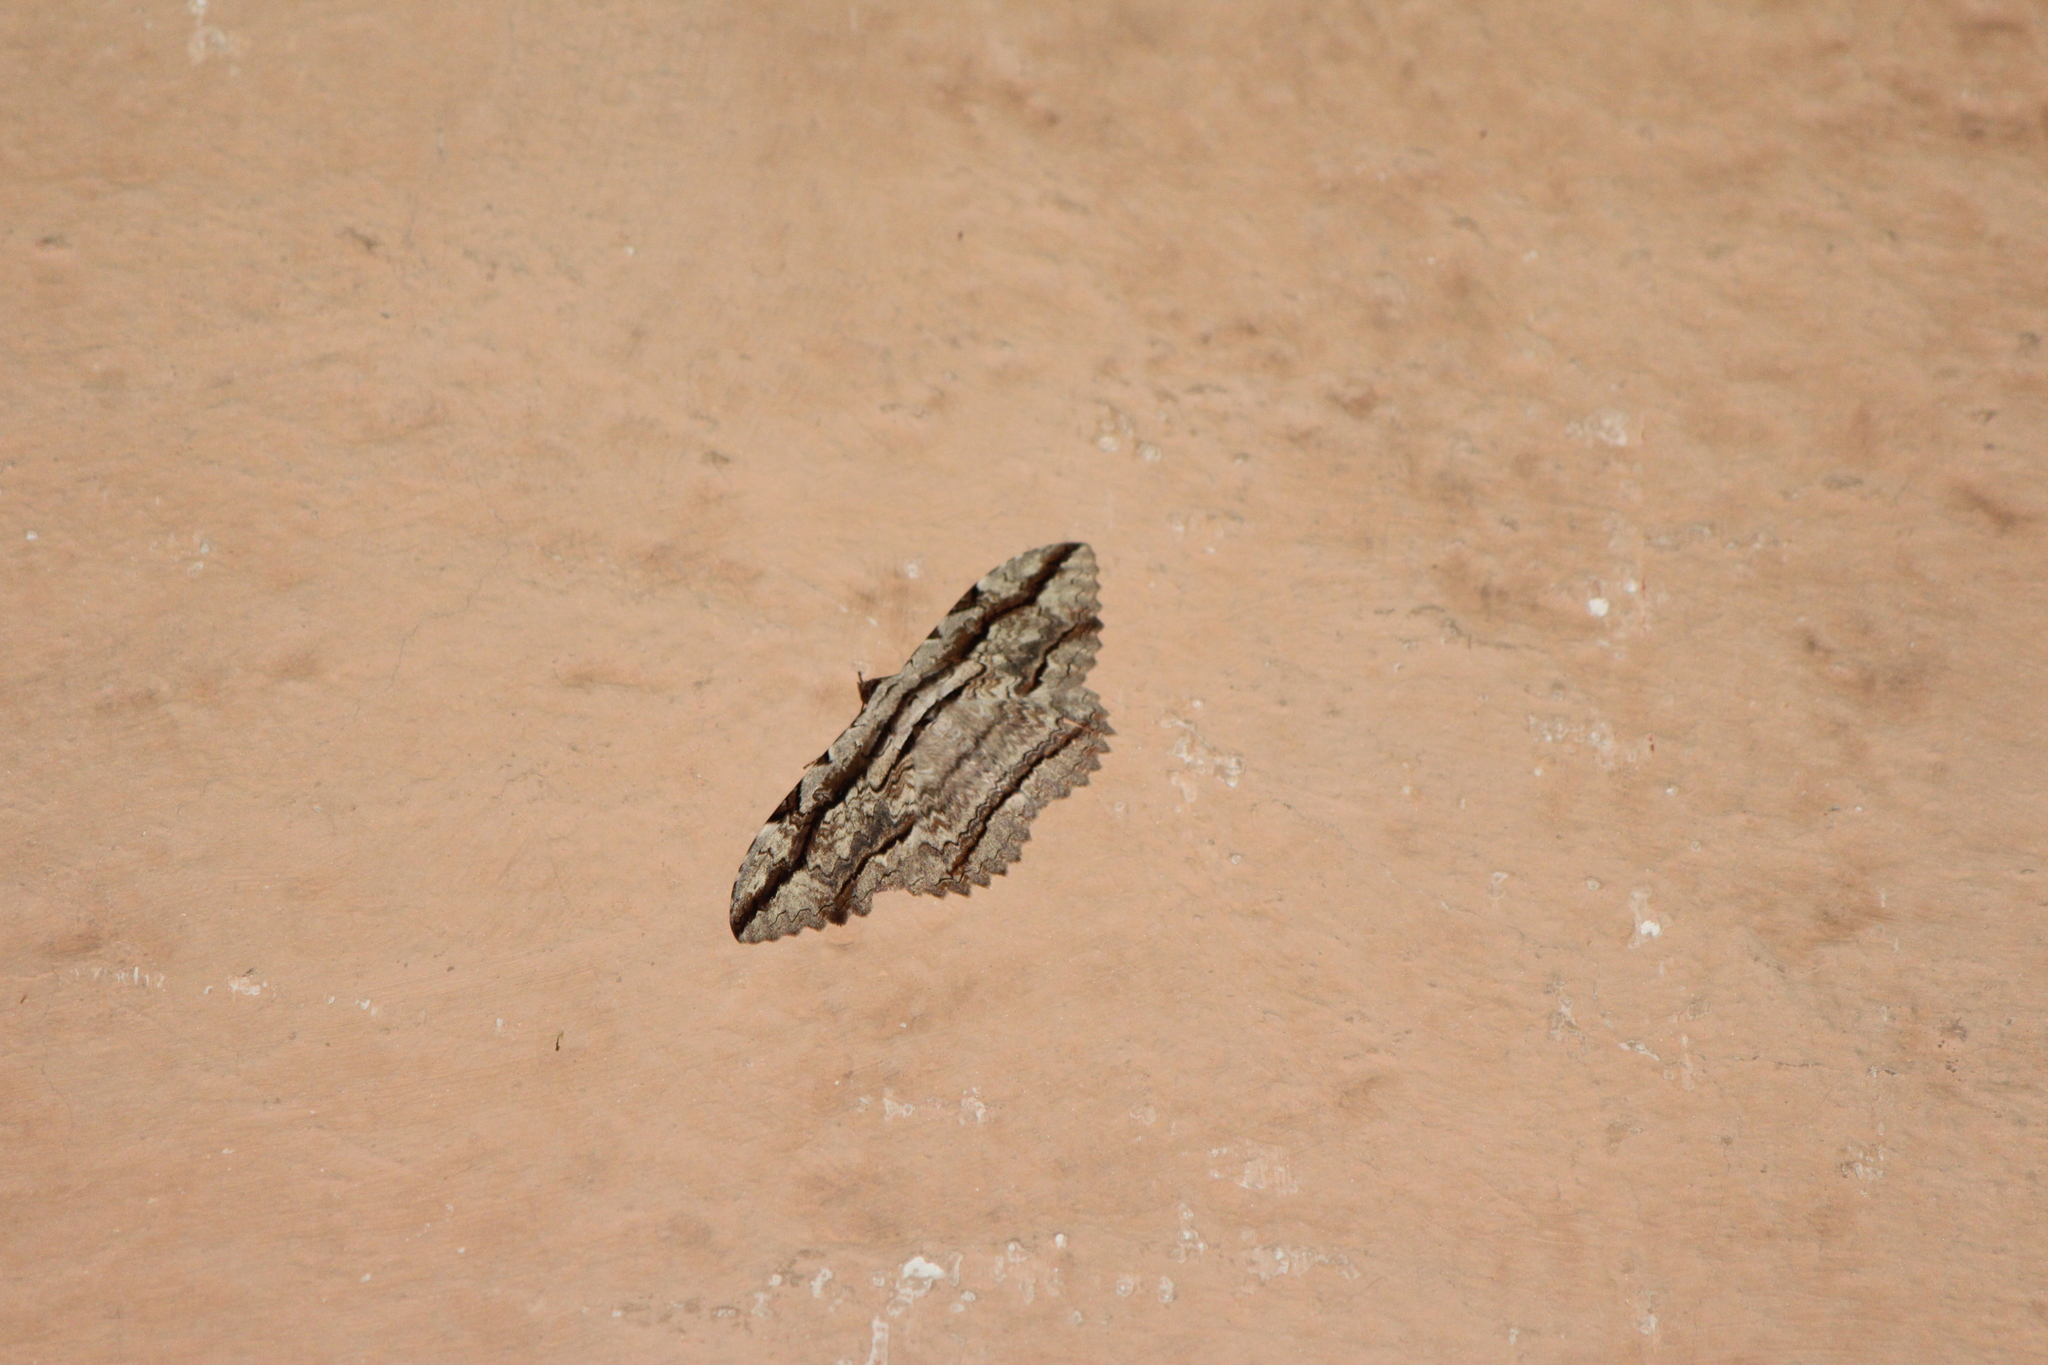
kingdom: Animalia
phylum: Arthropoda
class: Insecta
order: Lepidoptera
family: Erebidae
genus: Thysania
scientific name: Thysania zenobia
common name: Owl moth
